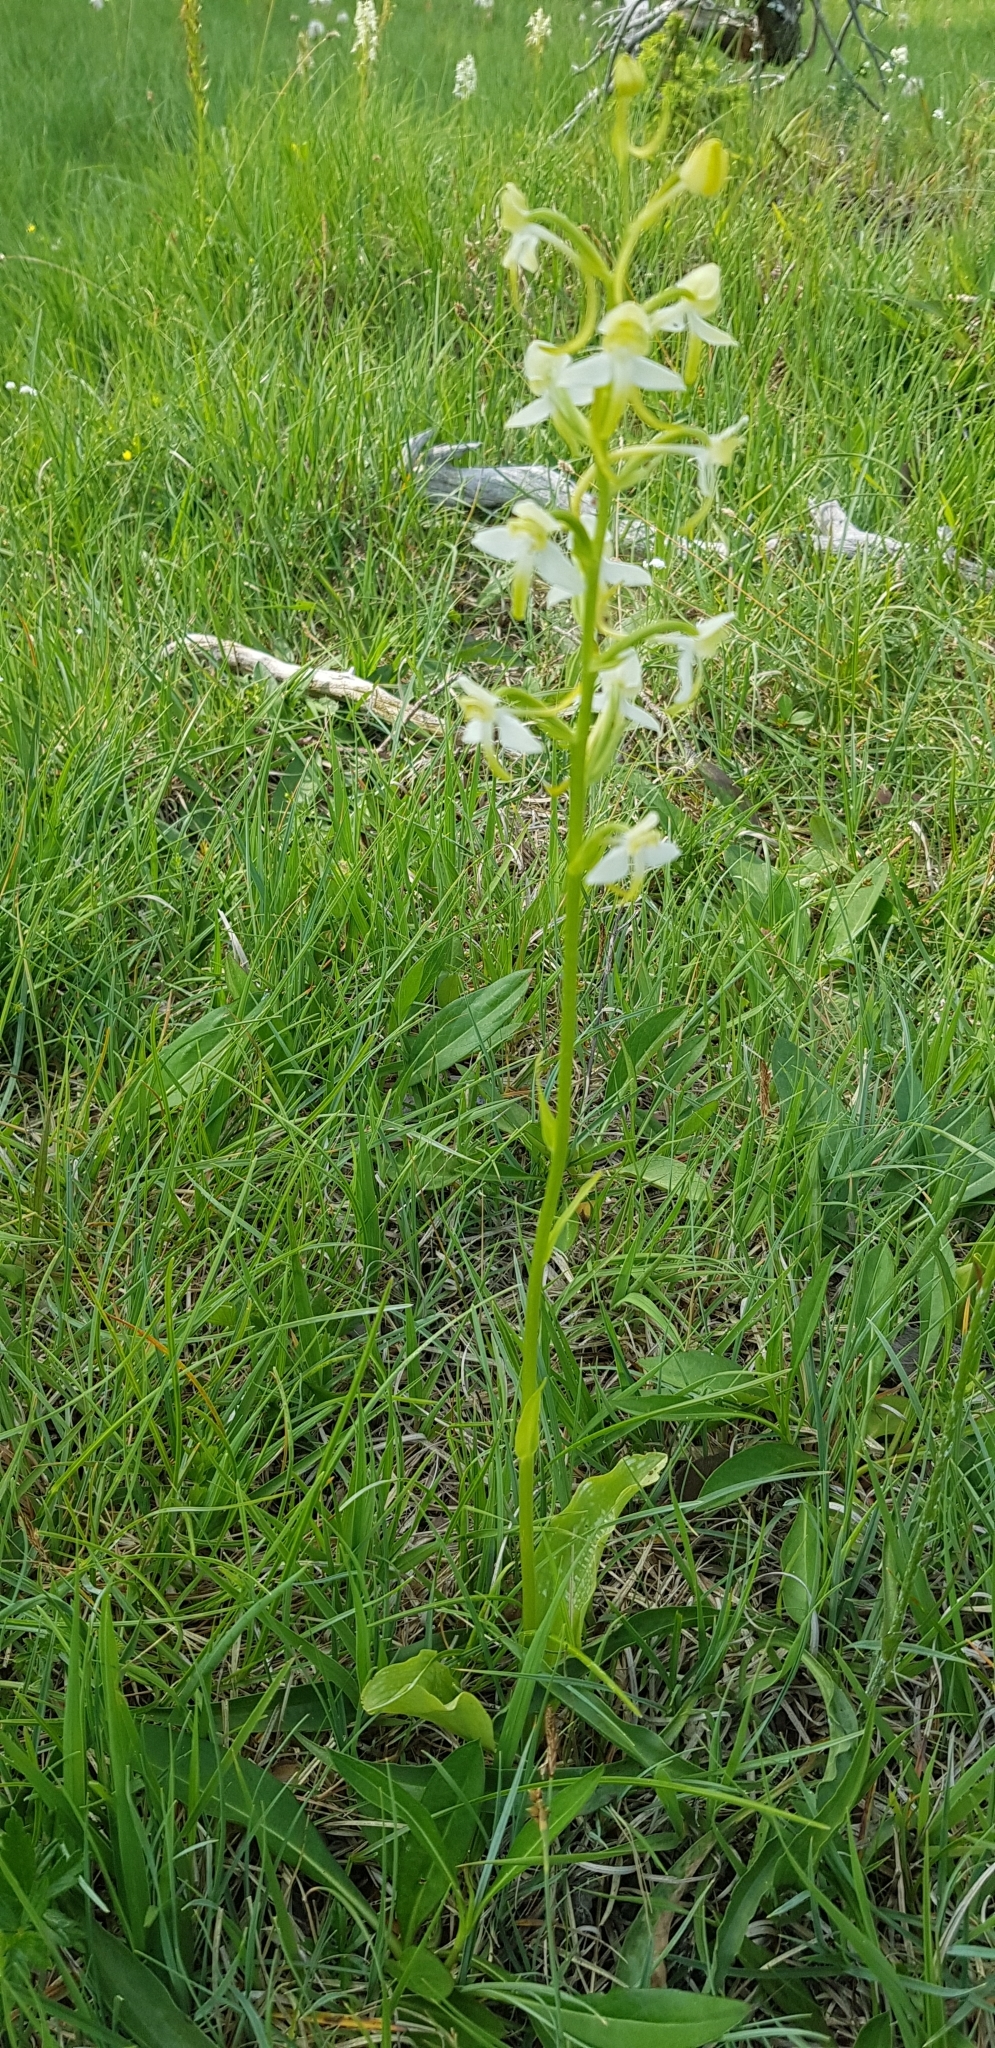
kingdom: Plantae
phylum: Tracheophyta
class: Liliopsida
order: Asparagales
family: Orchidaceae
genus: Platanthera
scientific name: Platanthera chlorantha
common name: Greater butterfly-orchid
